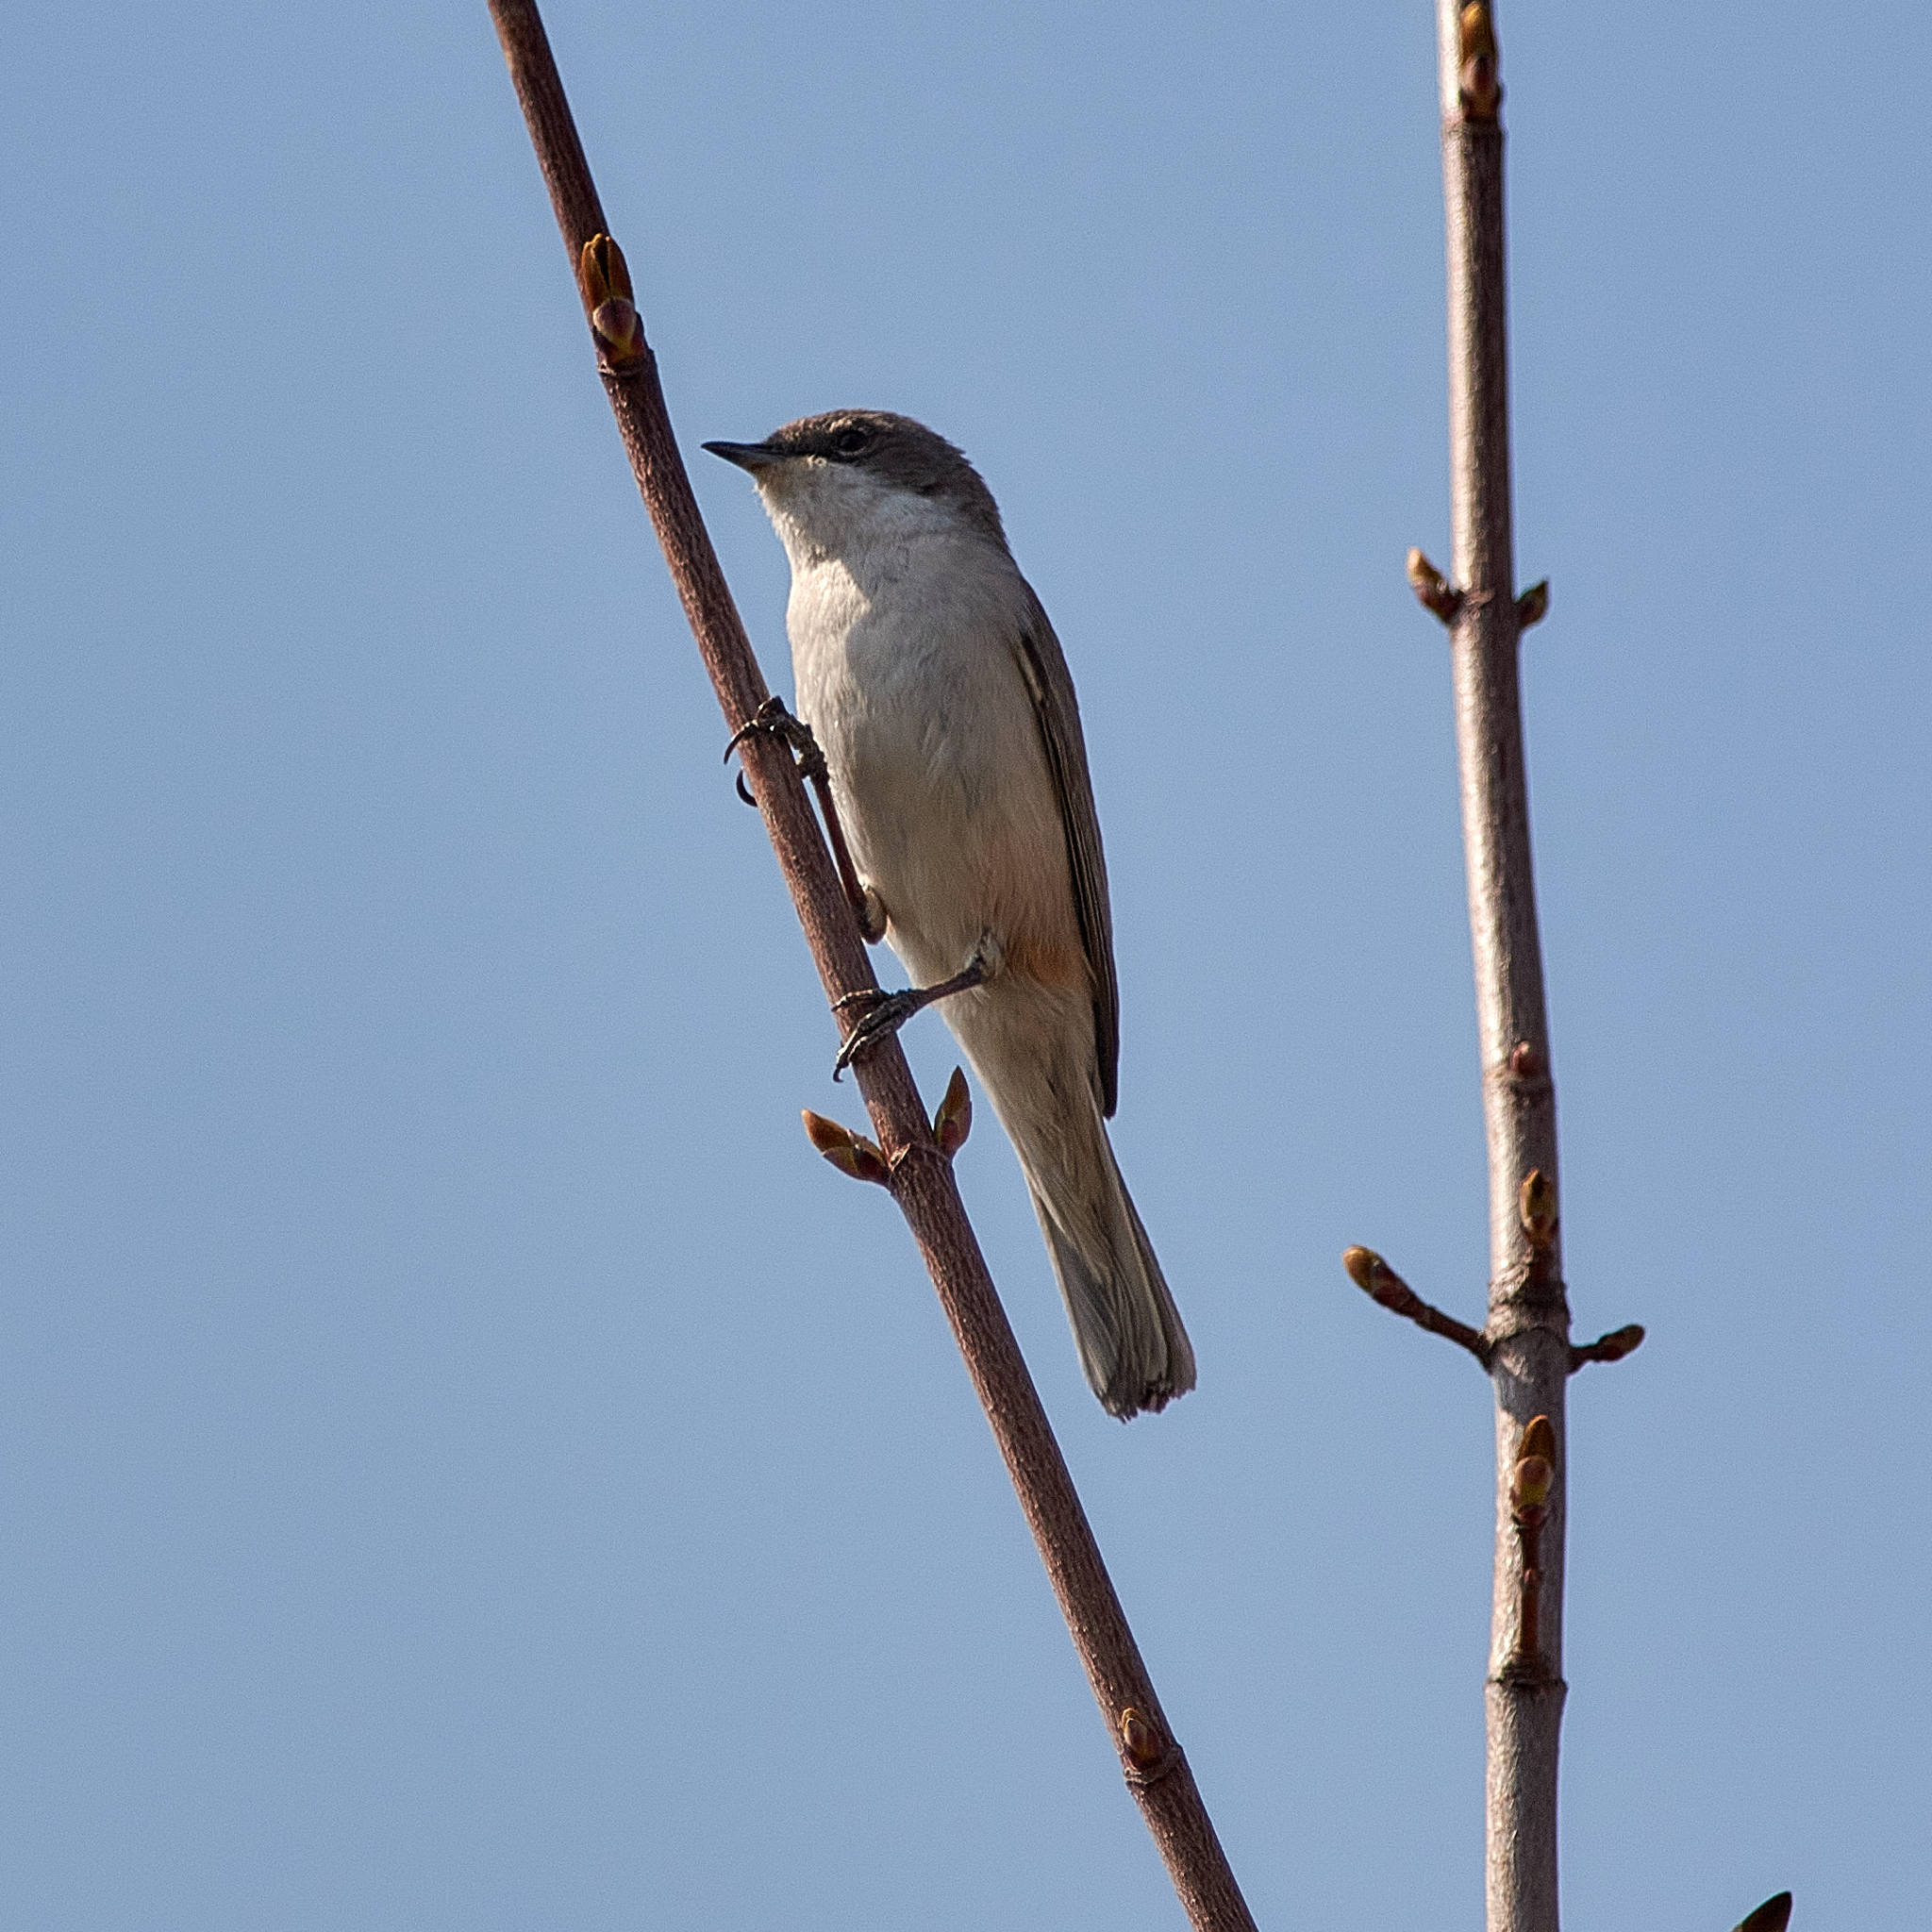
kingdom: Animalia
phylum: Chordata
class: Aves
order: Passeriformes
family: Sylviidae
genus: Sylvia
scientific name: Sylvia curruca
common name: Lesser whitethroat
